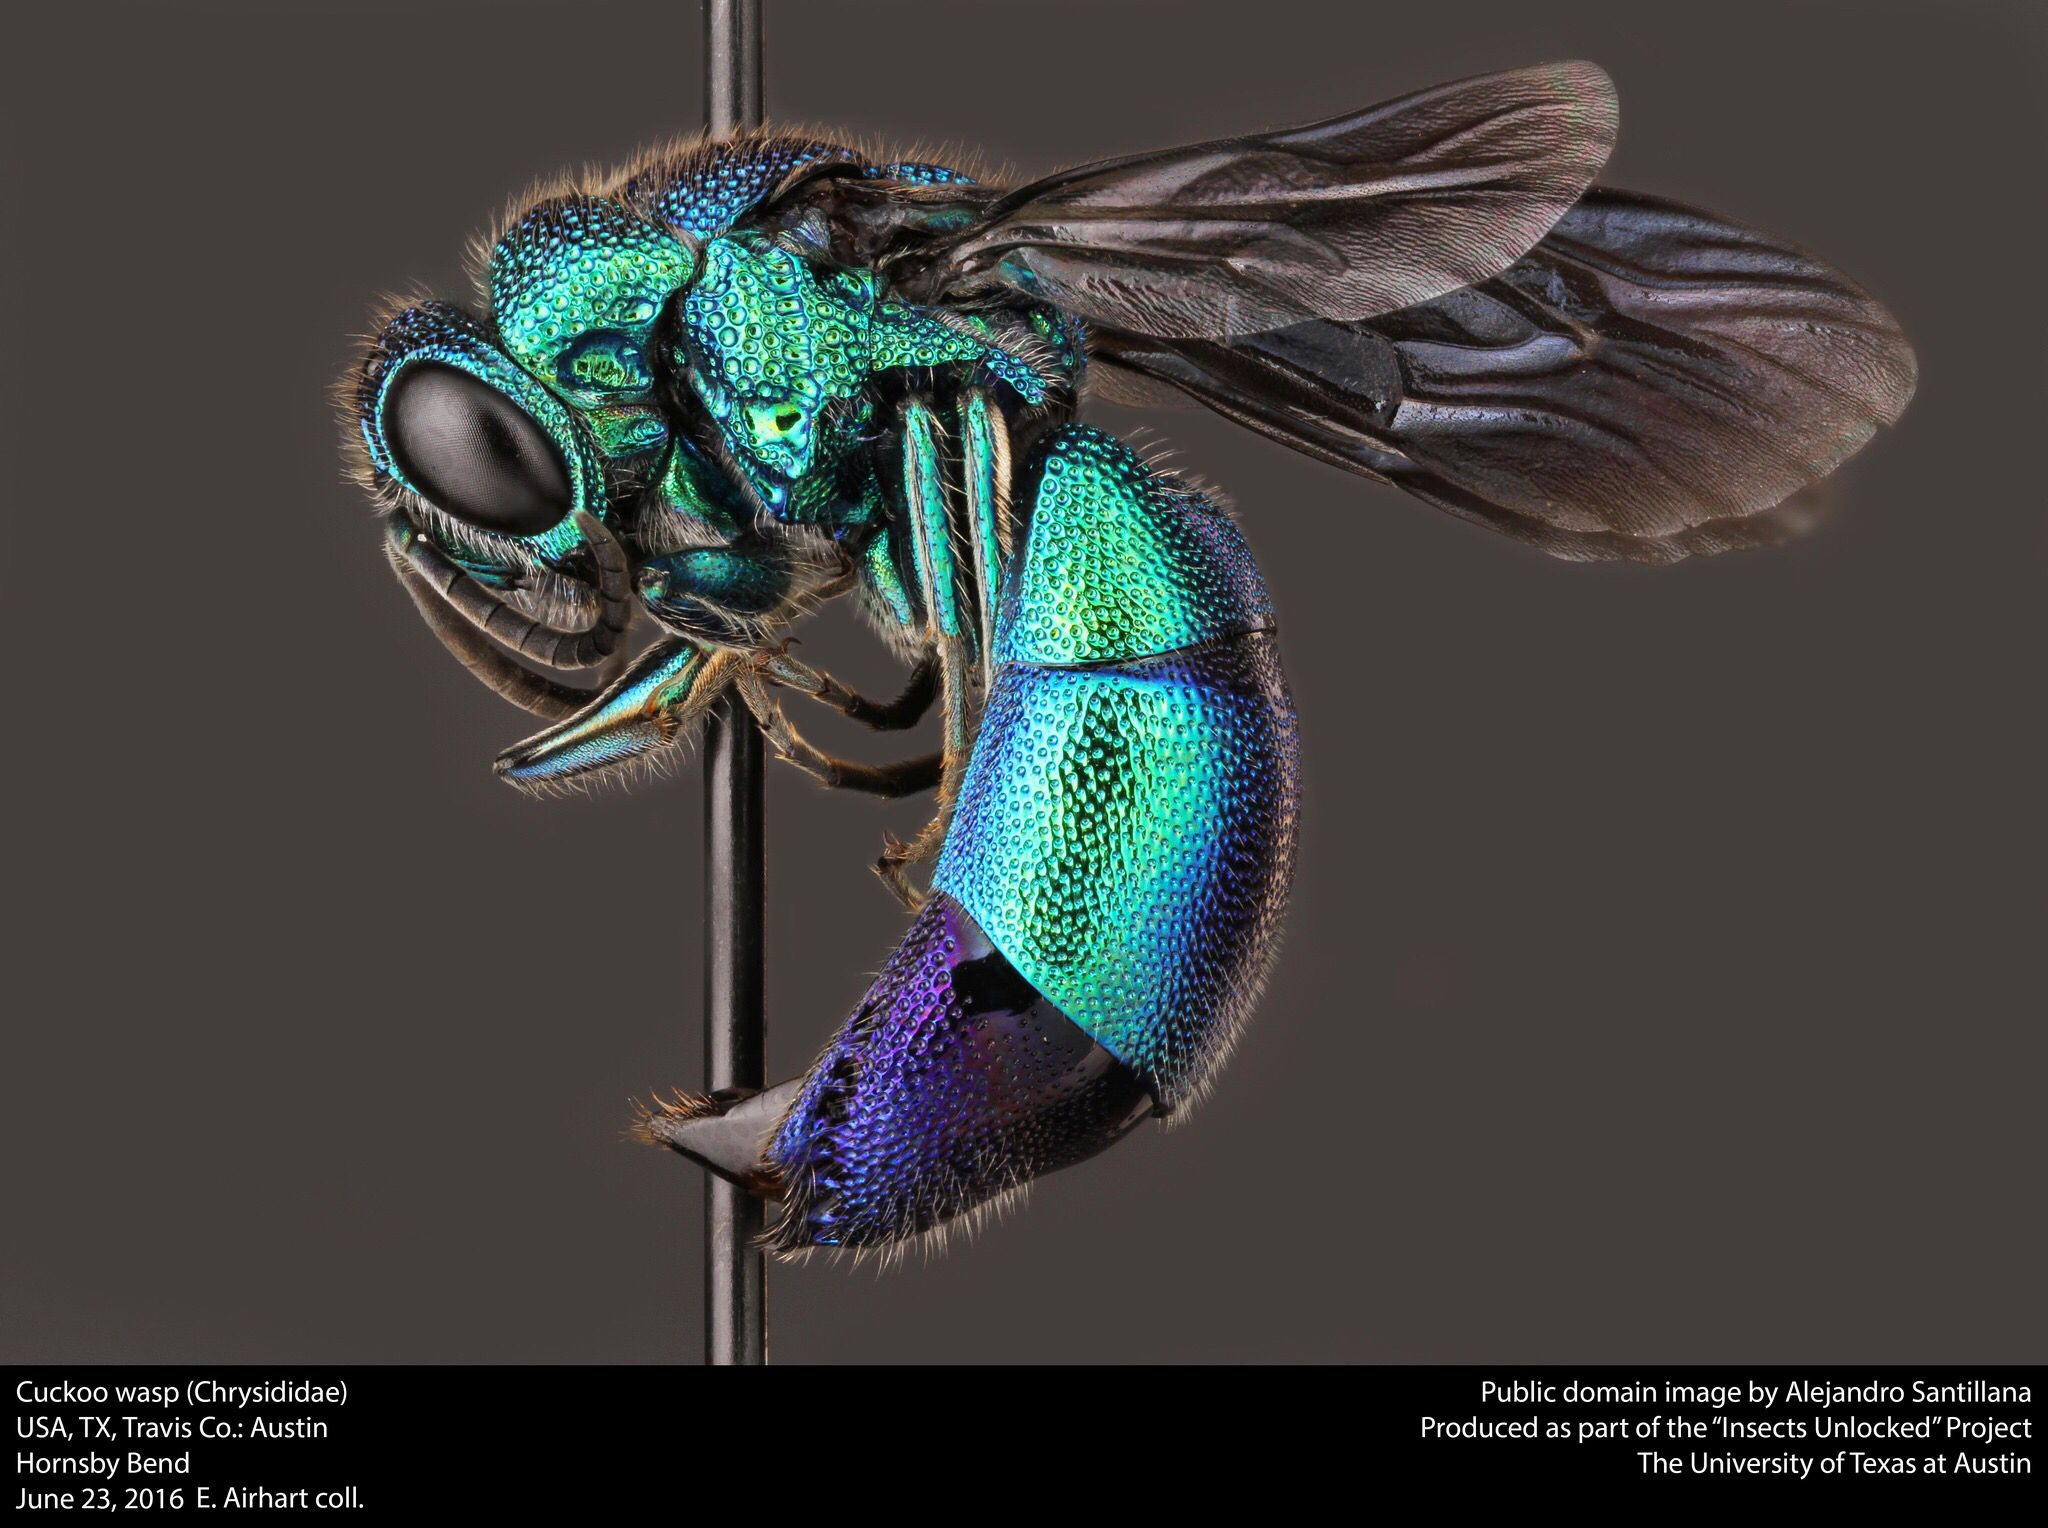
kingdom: Animalia
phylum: Arthropoda
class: Insecta
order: Hymenoptera
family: Chrysididae
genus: Chrysis
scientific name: Chrysis angolensis
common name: Cuckoo wasp
